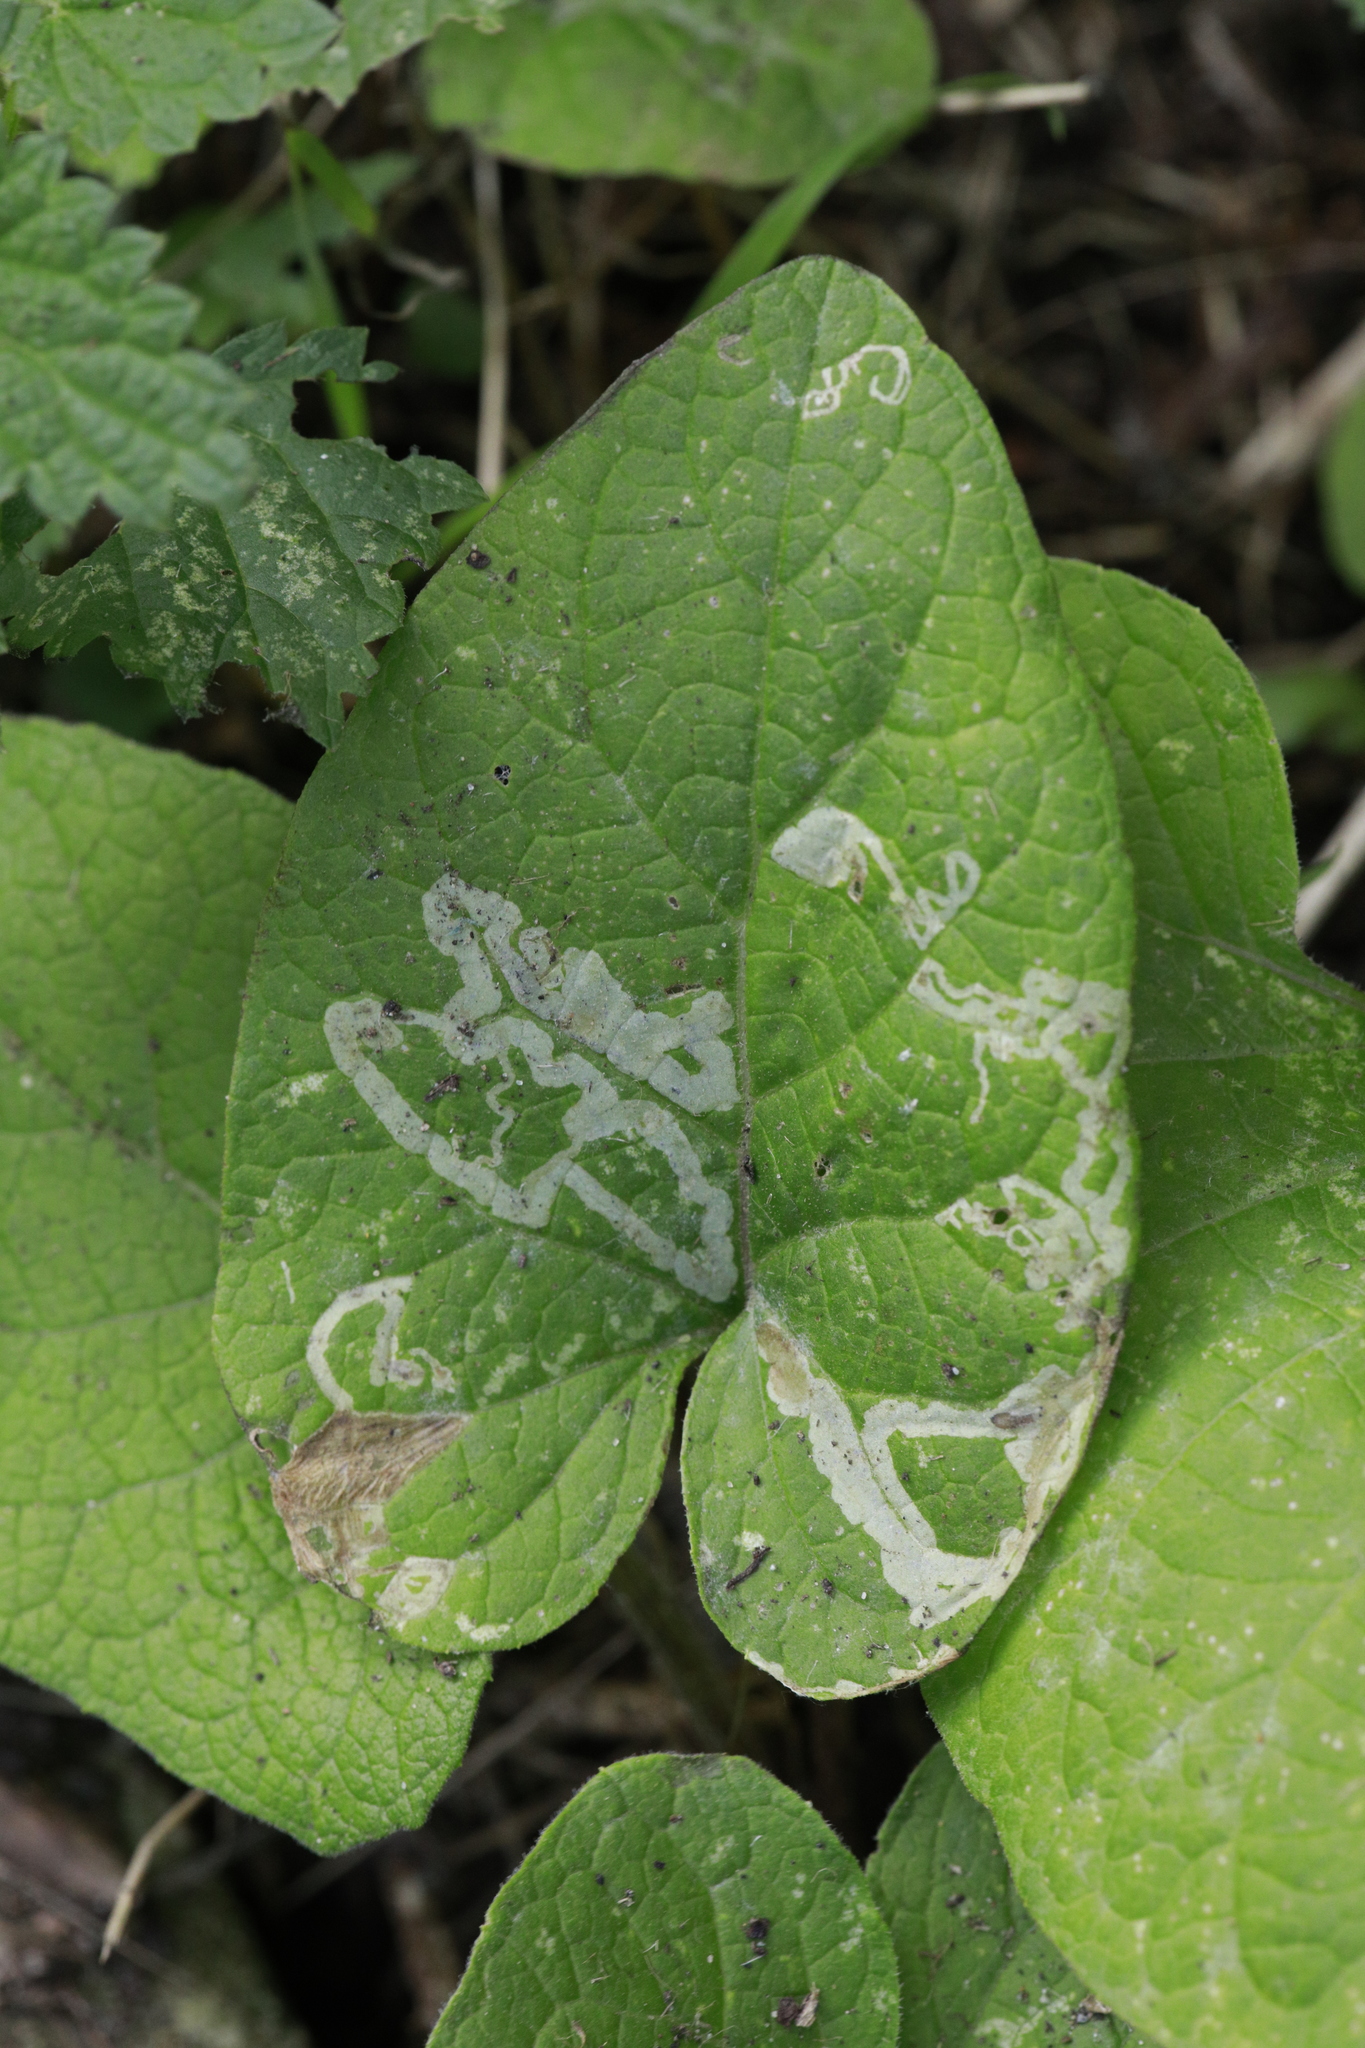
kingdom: Animalia
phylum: Arthropoda
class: Insecta
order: Diptera
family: Agromyzidae
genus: Phytomyza
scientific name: Phytomyza lappae
